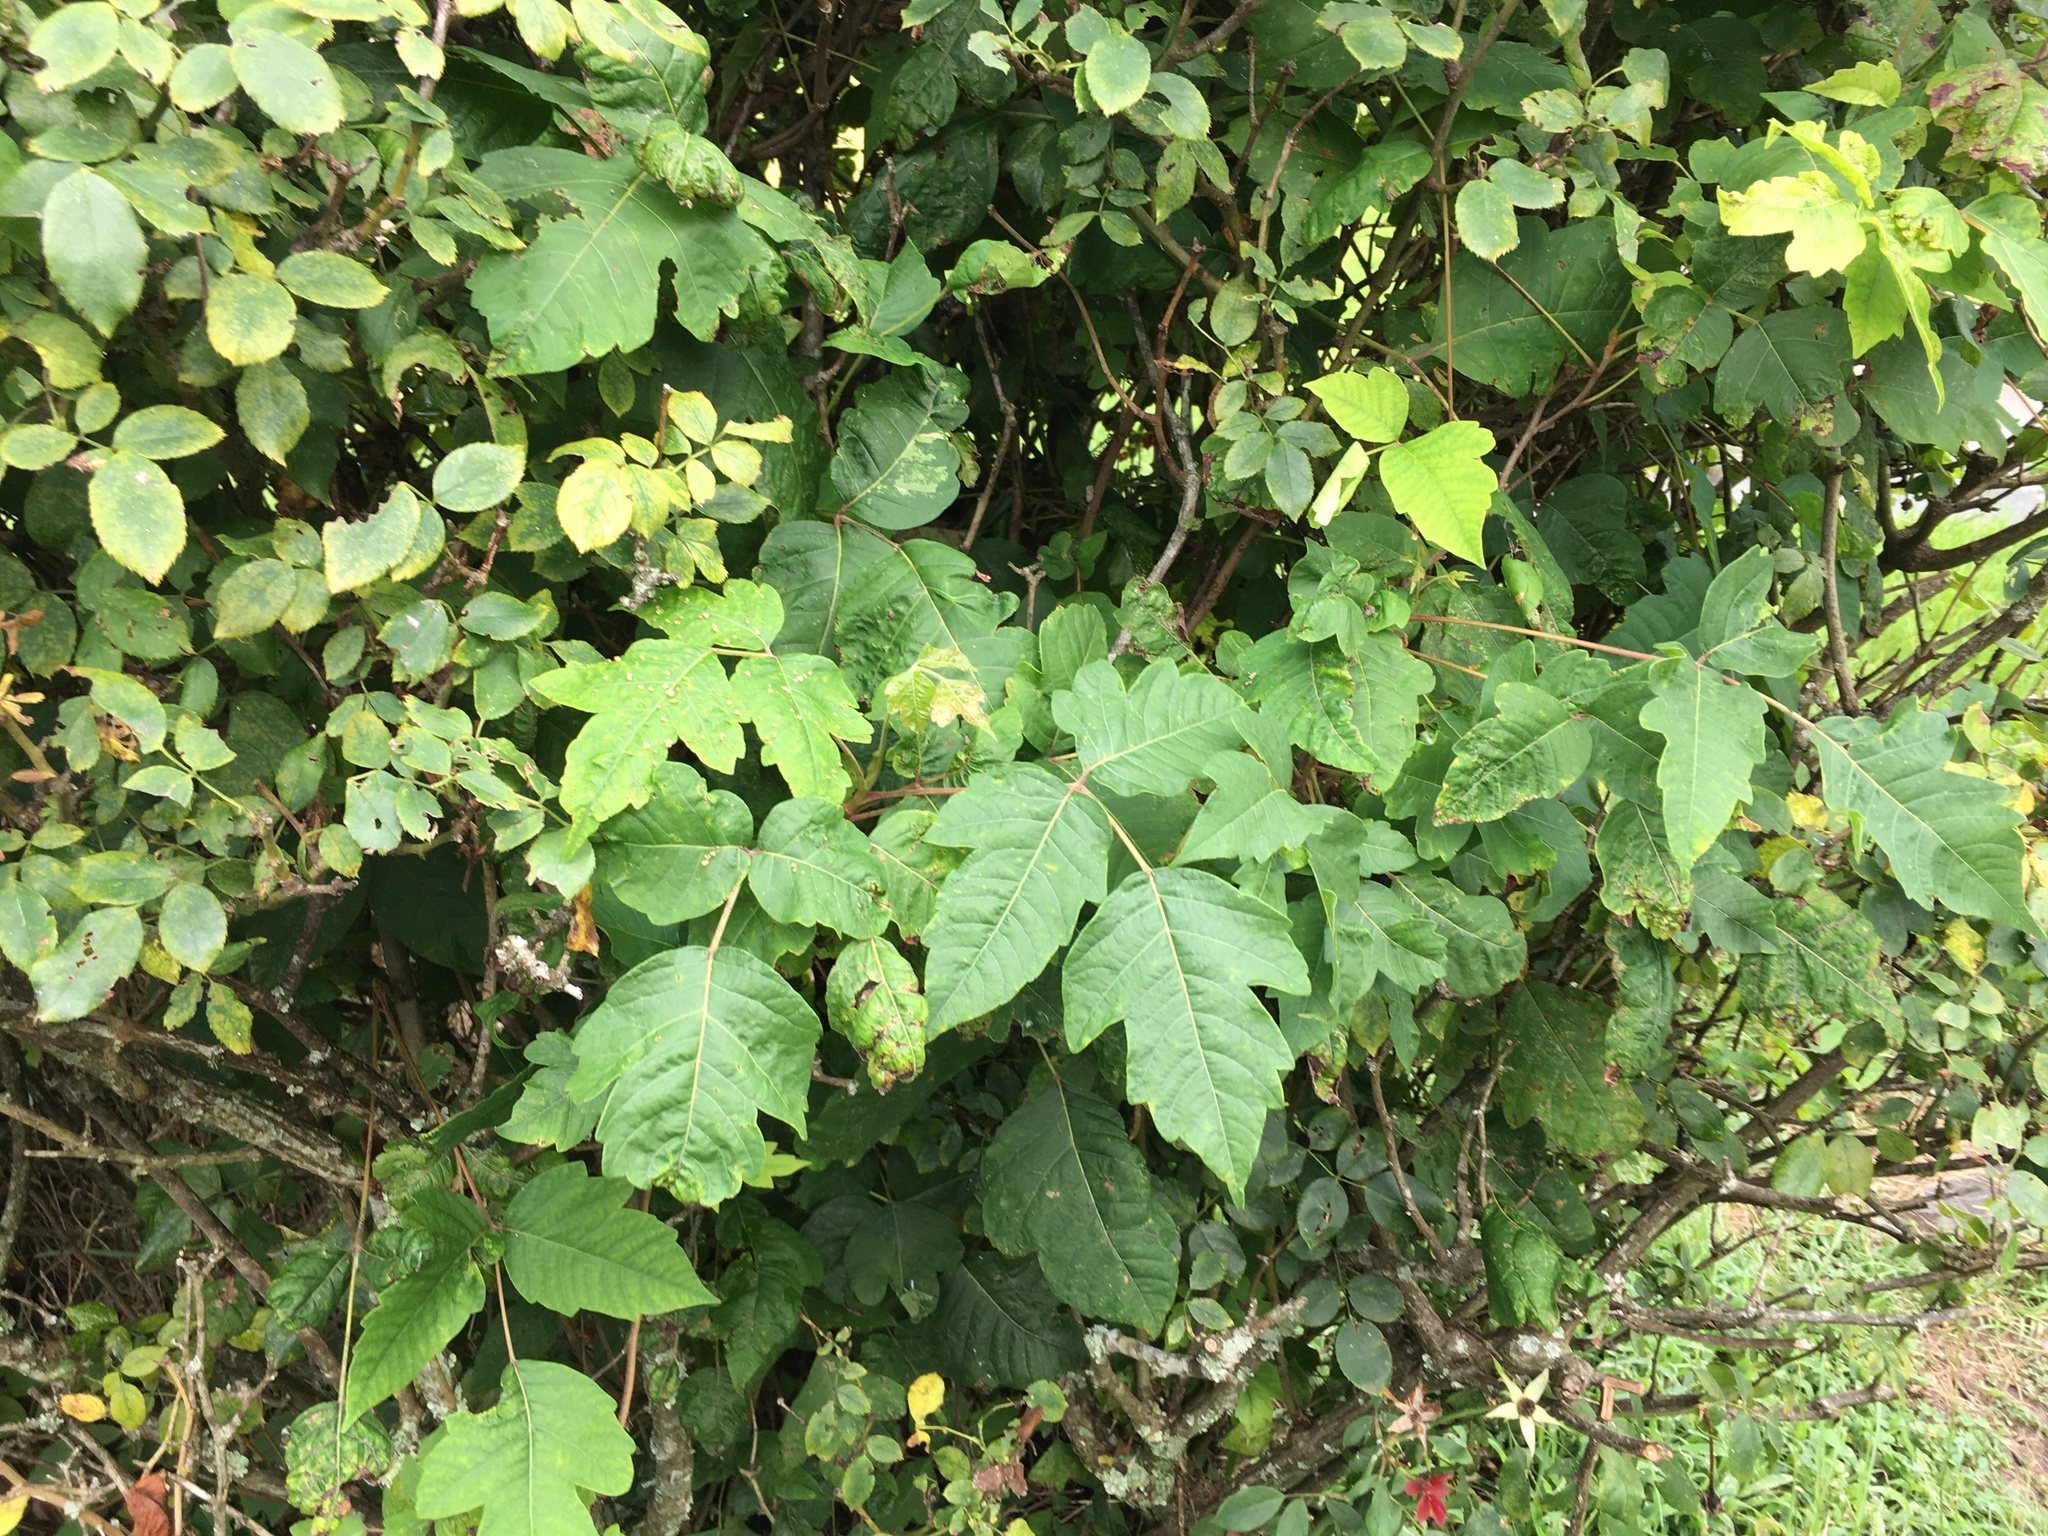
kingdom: Plantae
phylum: Tracheophyta
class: Magnoliopsida
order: Sapindales
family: Anacardiaceae
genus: Toxicodendron
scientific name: Toxicodendron radicans
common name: Poison ivy
